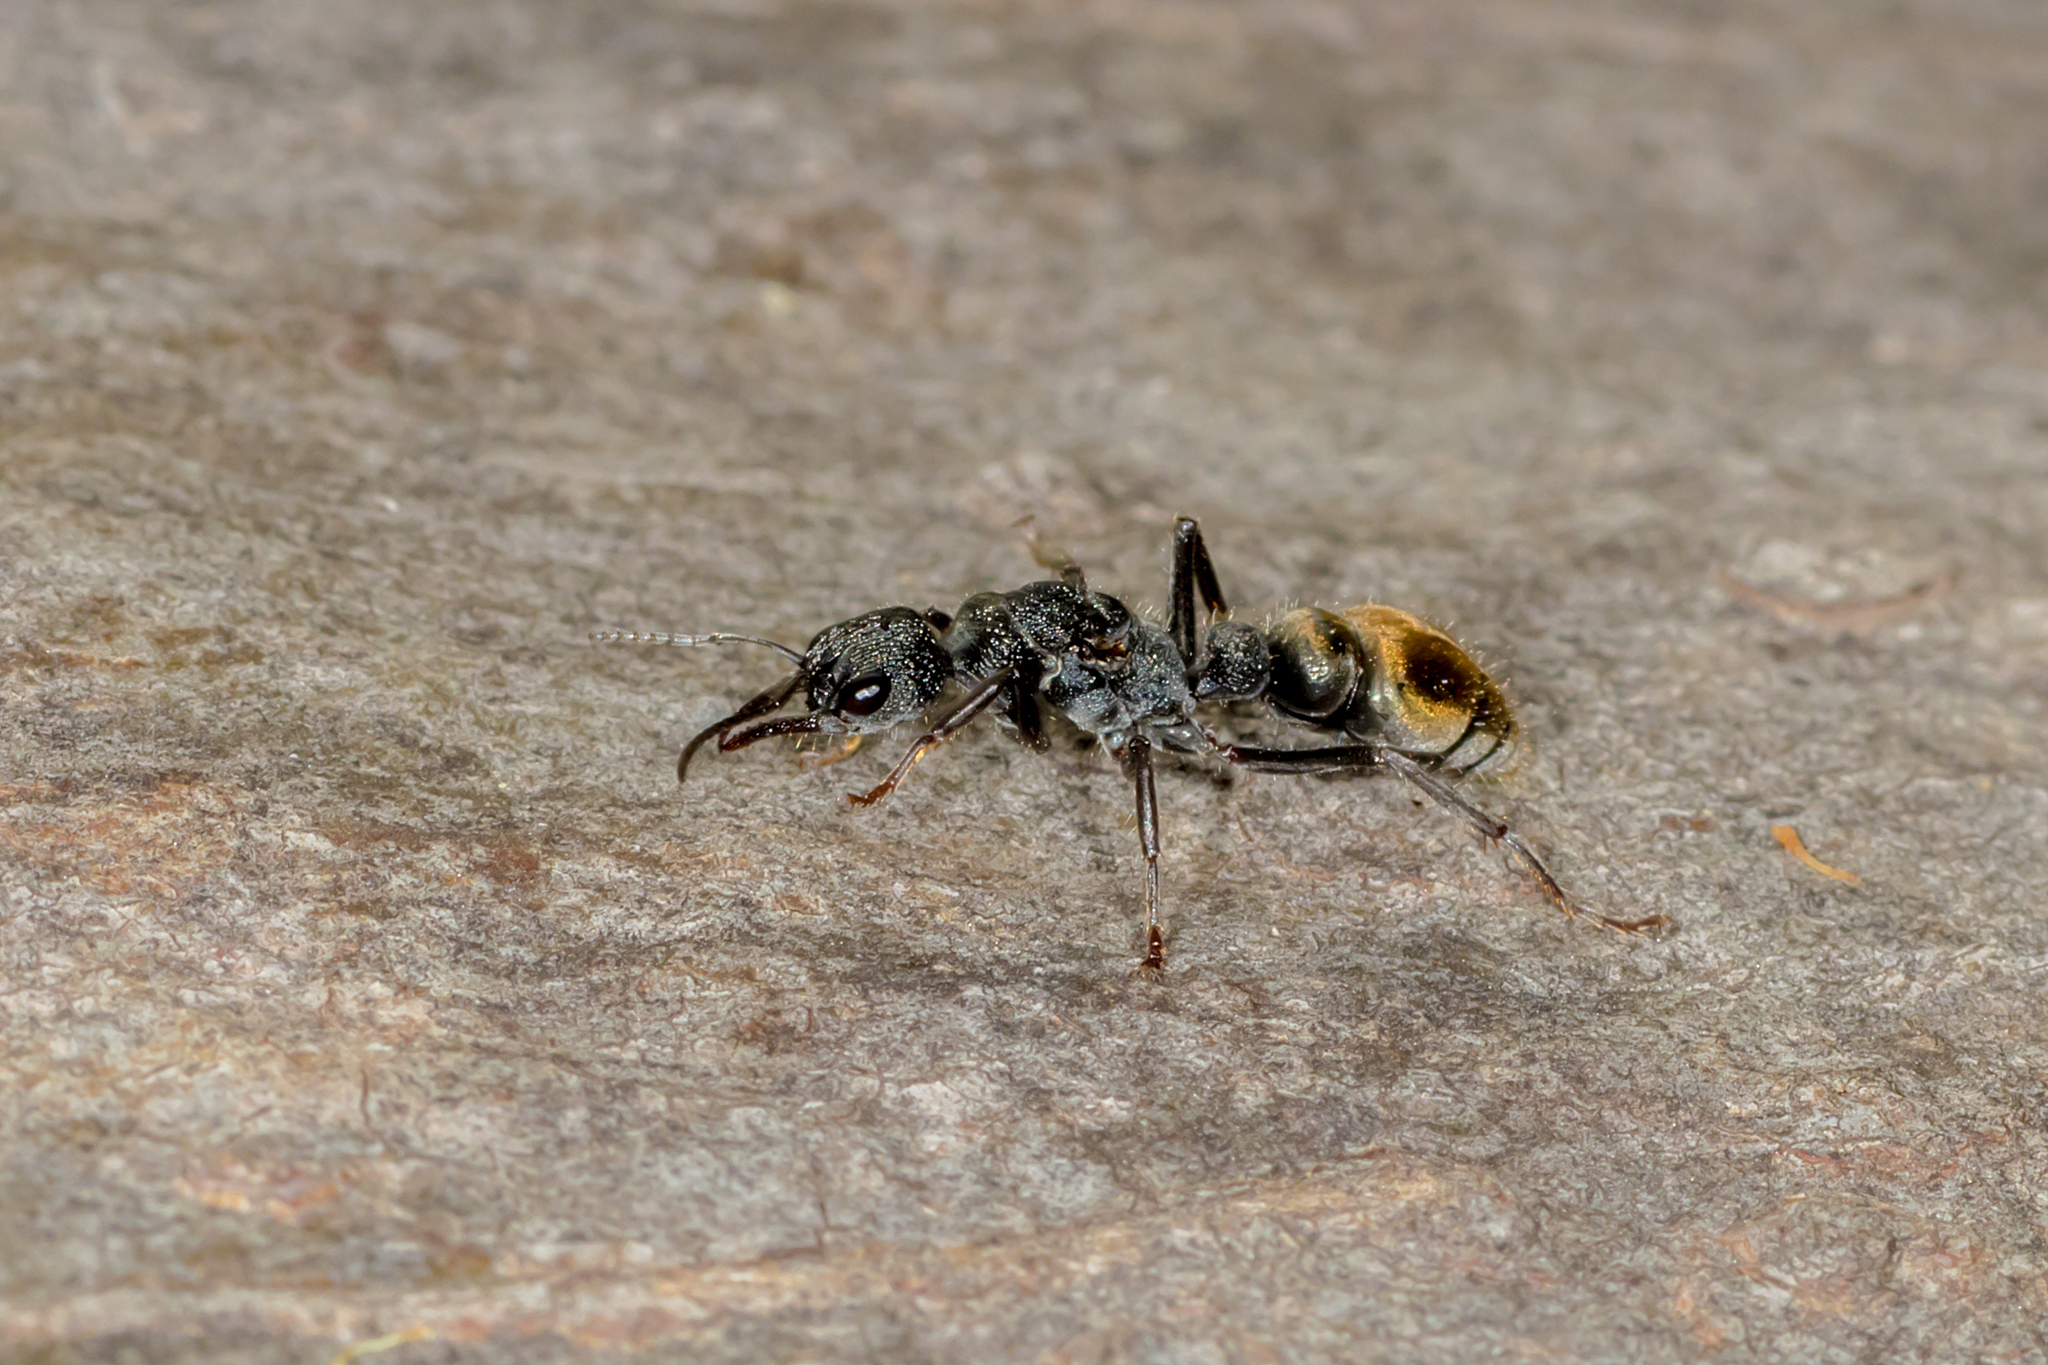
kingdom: Animalia
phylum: Arthropoda
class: Insecta
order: Hymenoptera
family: Formicidae
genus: Myrmecia
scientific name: Myrmecia piliventris
